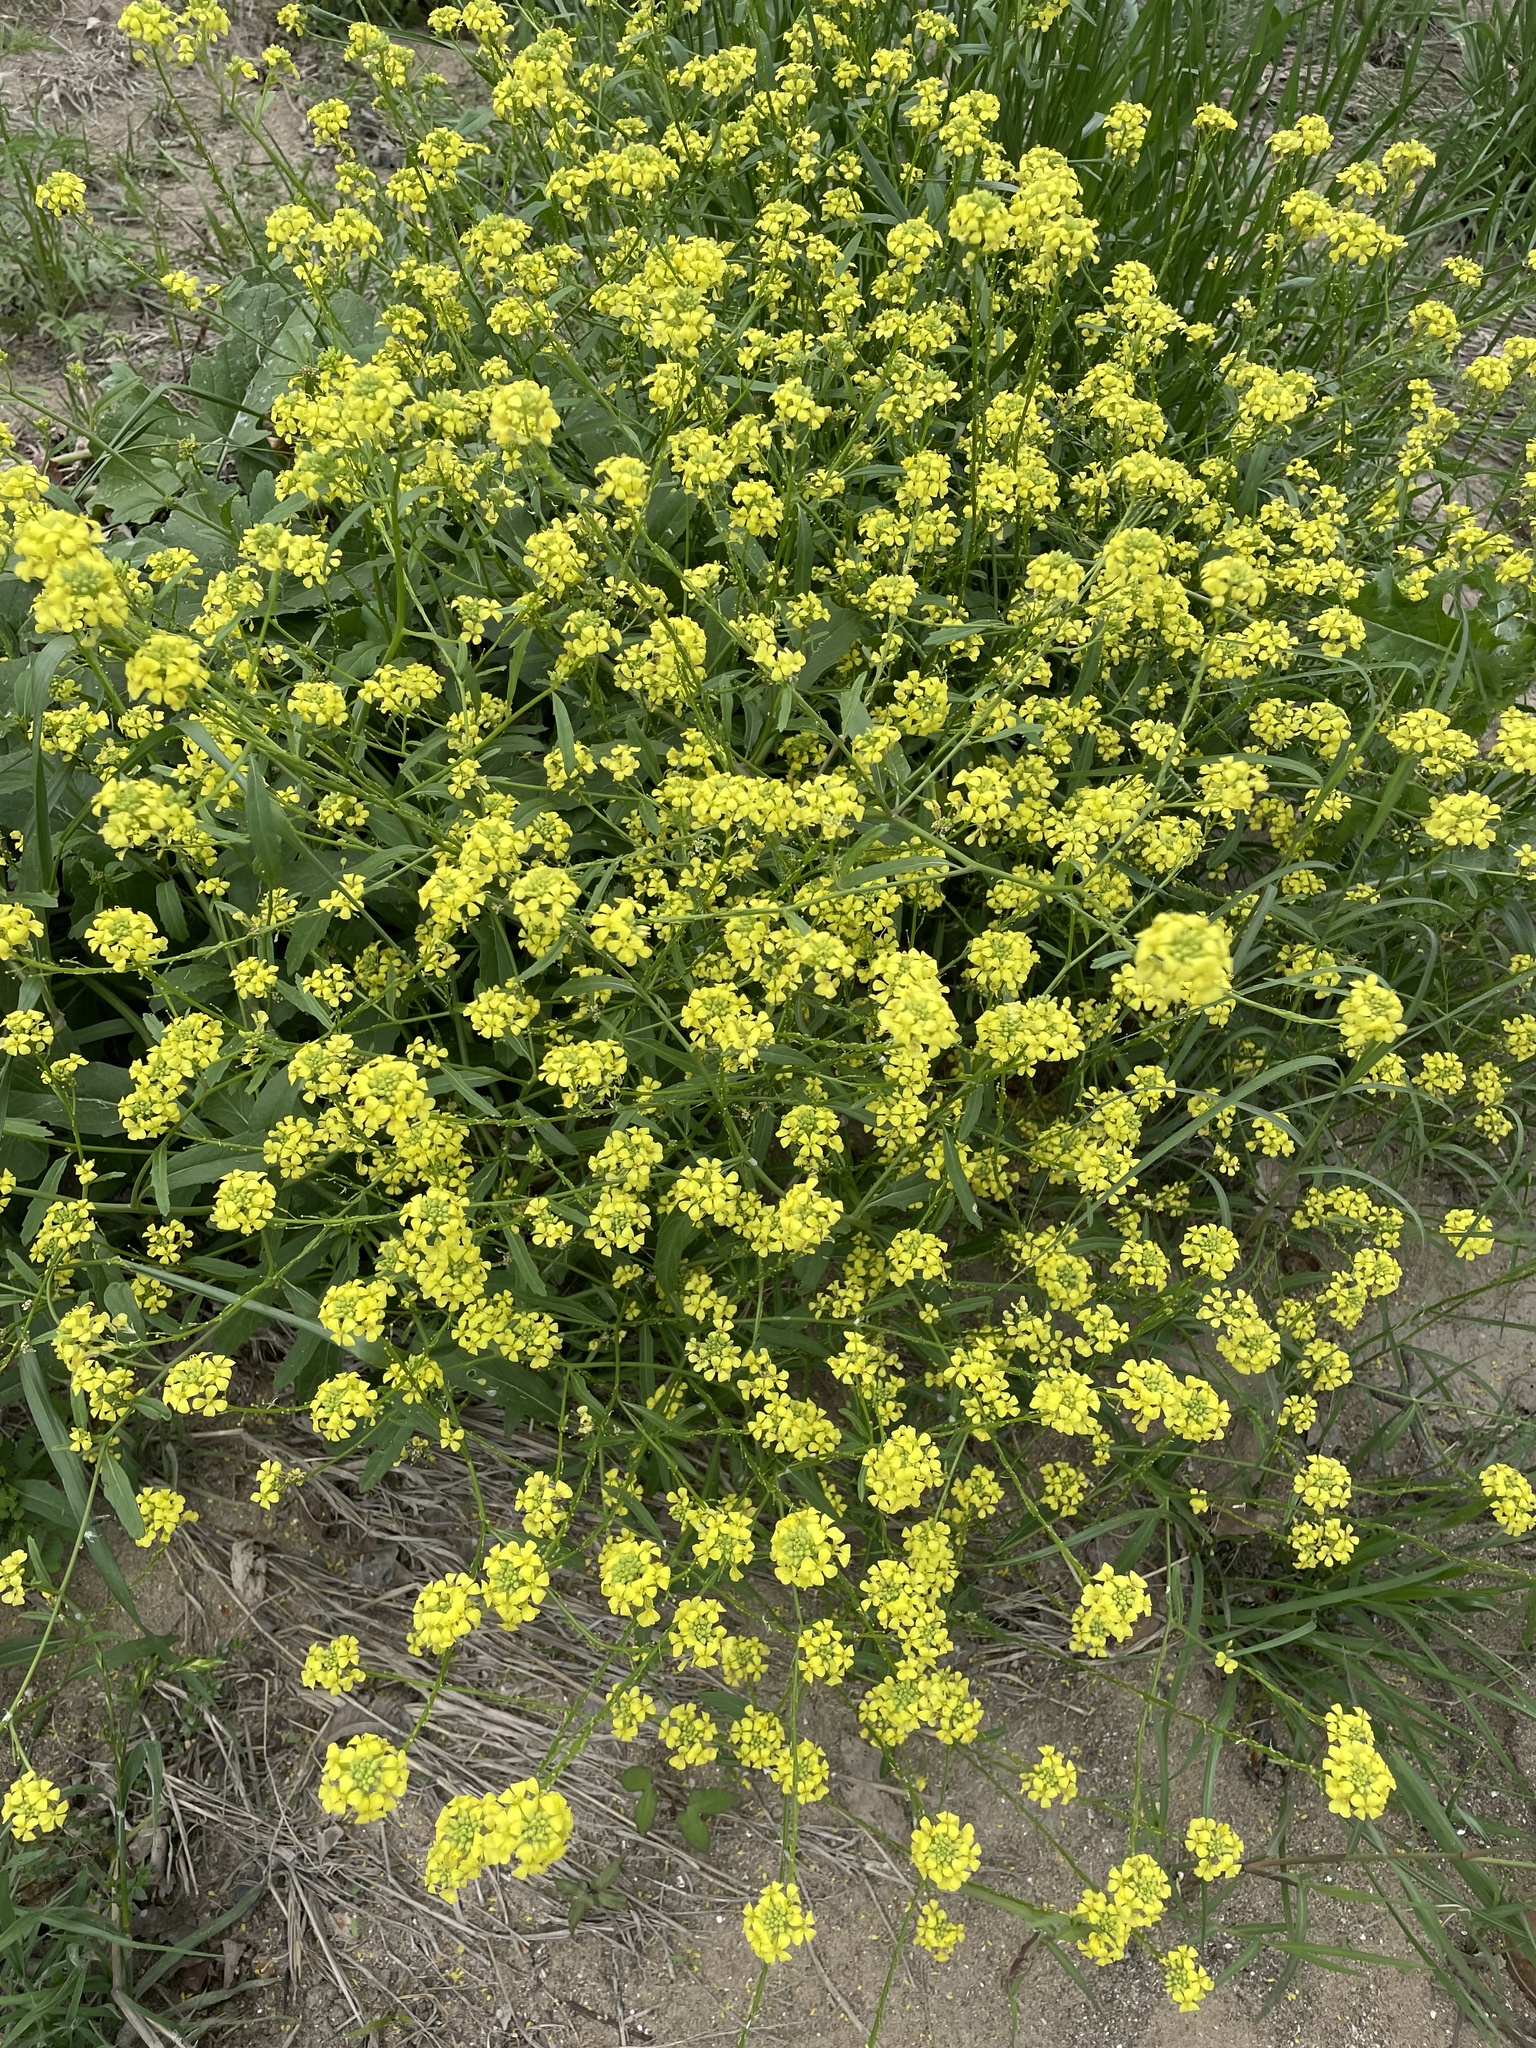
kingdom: Plantae
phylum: Tracheophyta
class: Magnoliopsida
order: Brassicales
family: Brassicaceae
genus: Rapistrum
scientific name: Rapistrum rugosum
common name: Annual bastardcabbage
